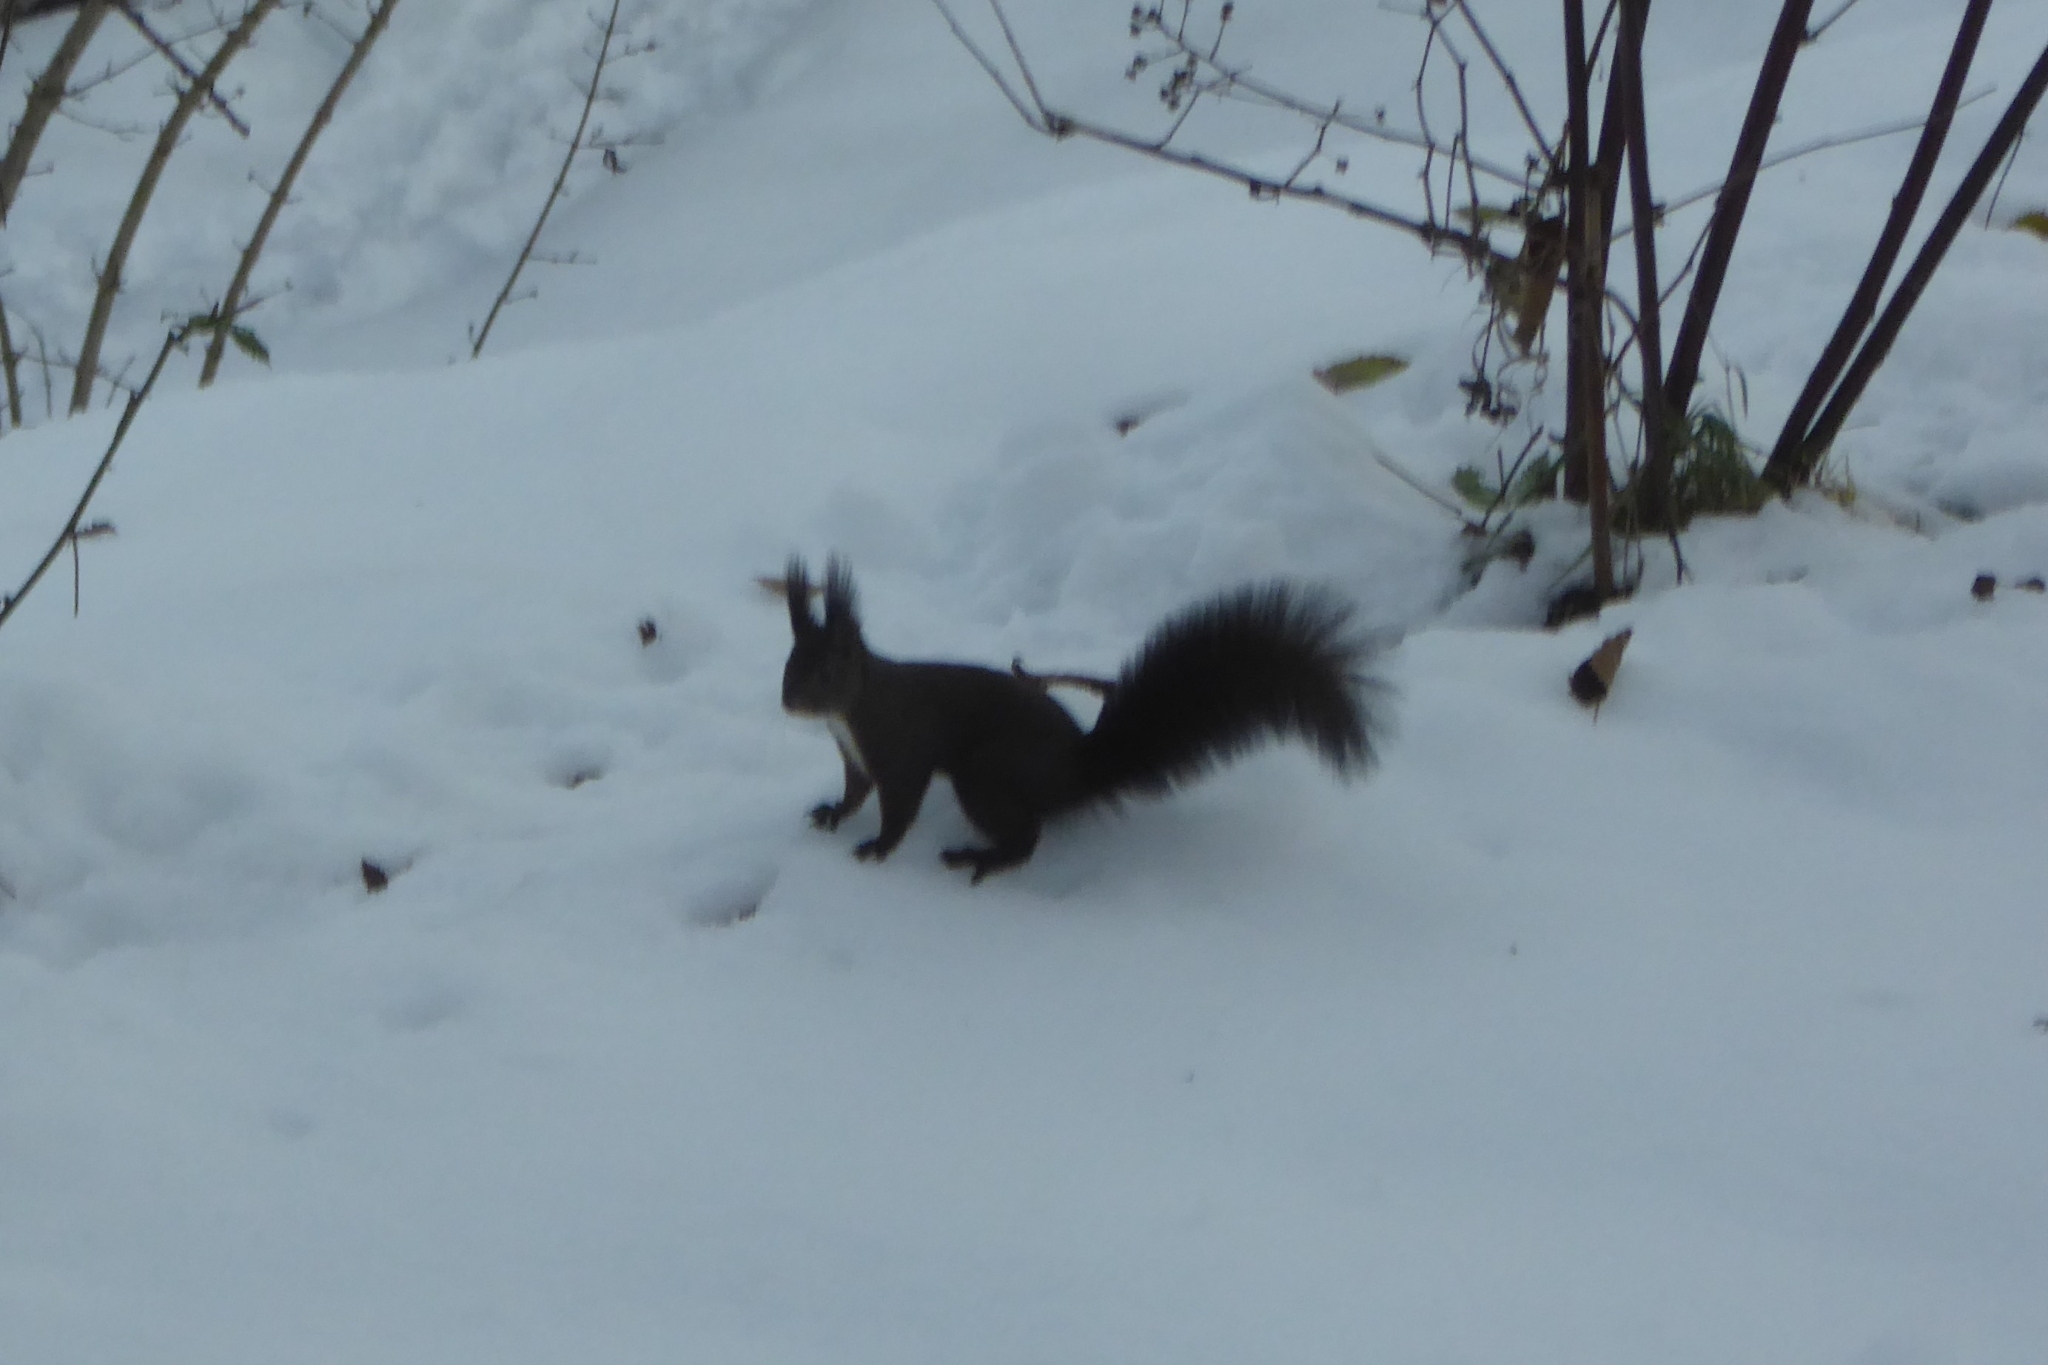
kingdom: Animalia
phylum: Chordata
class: Mammalia
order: Rodentia
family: Sciuridae
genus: Sciurus
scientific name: Sciurus vulgaris
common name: Eurasian red squirrel
